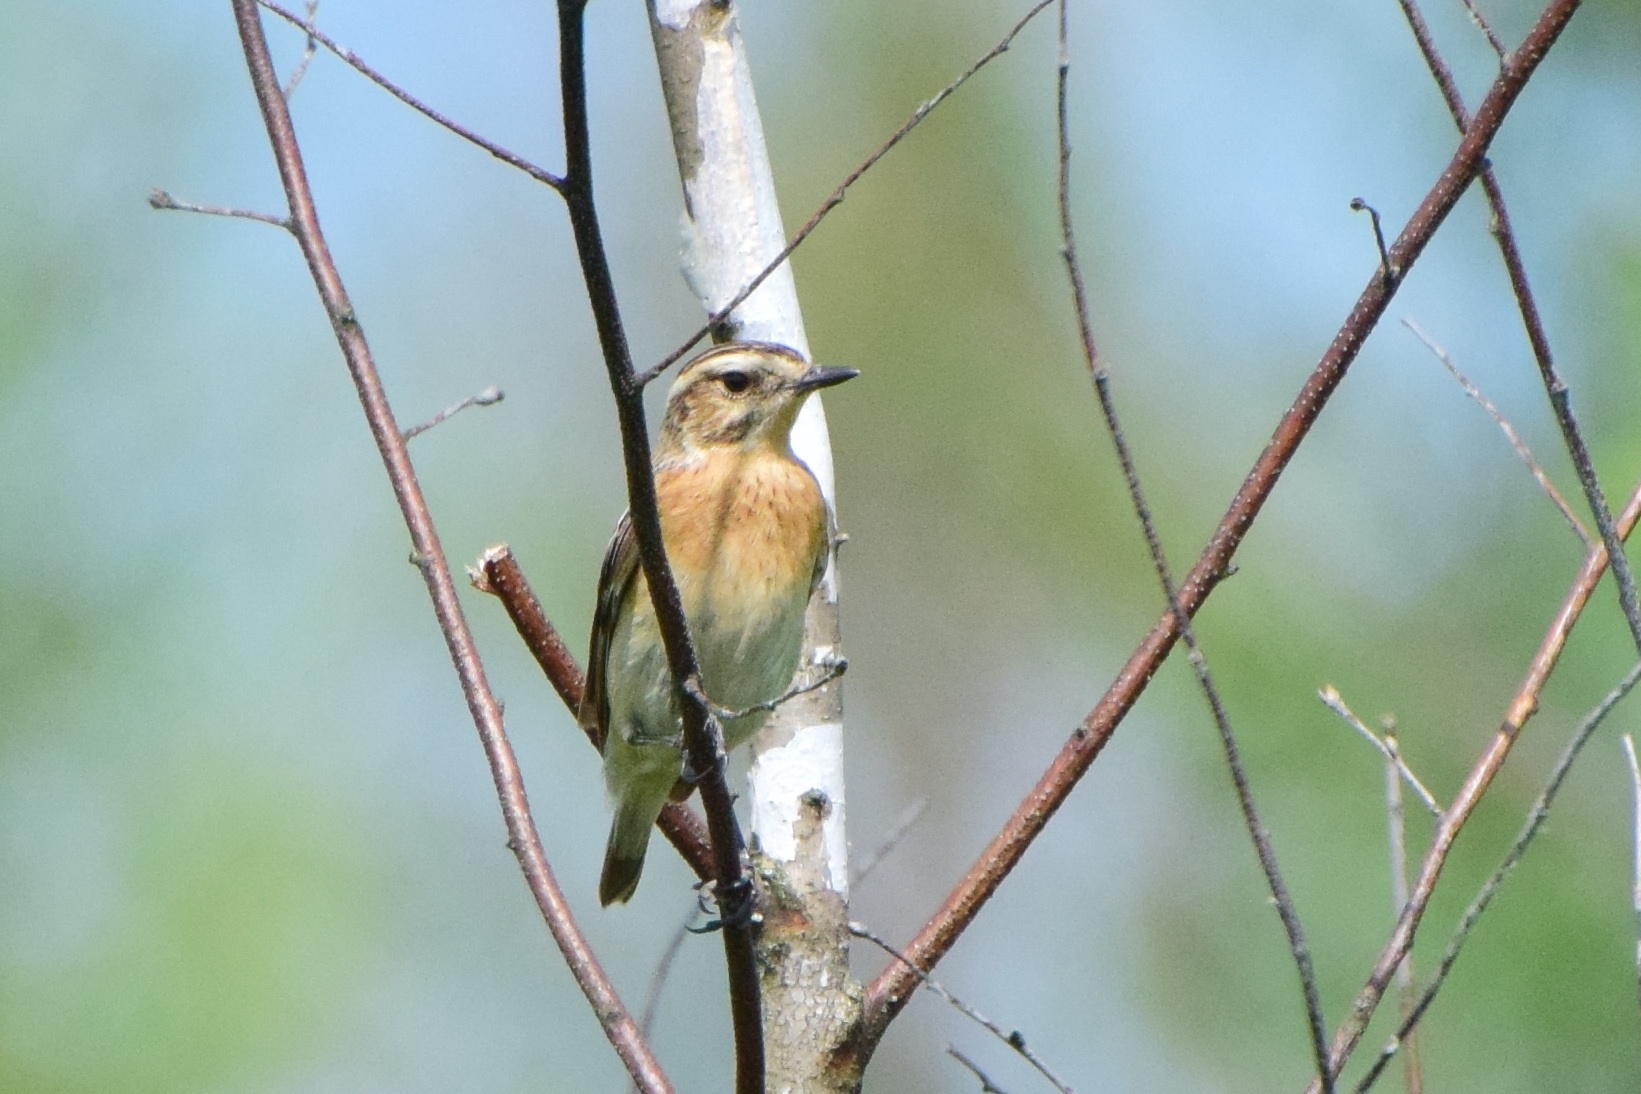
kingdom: Animalia
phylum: Chordata
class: Aves
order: Passeriformes
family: Muscicapidae
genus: Saxicola
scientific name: Saxicola rubetra
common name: Whinchat
